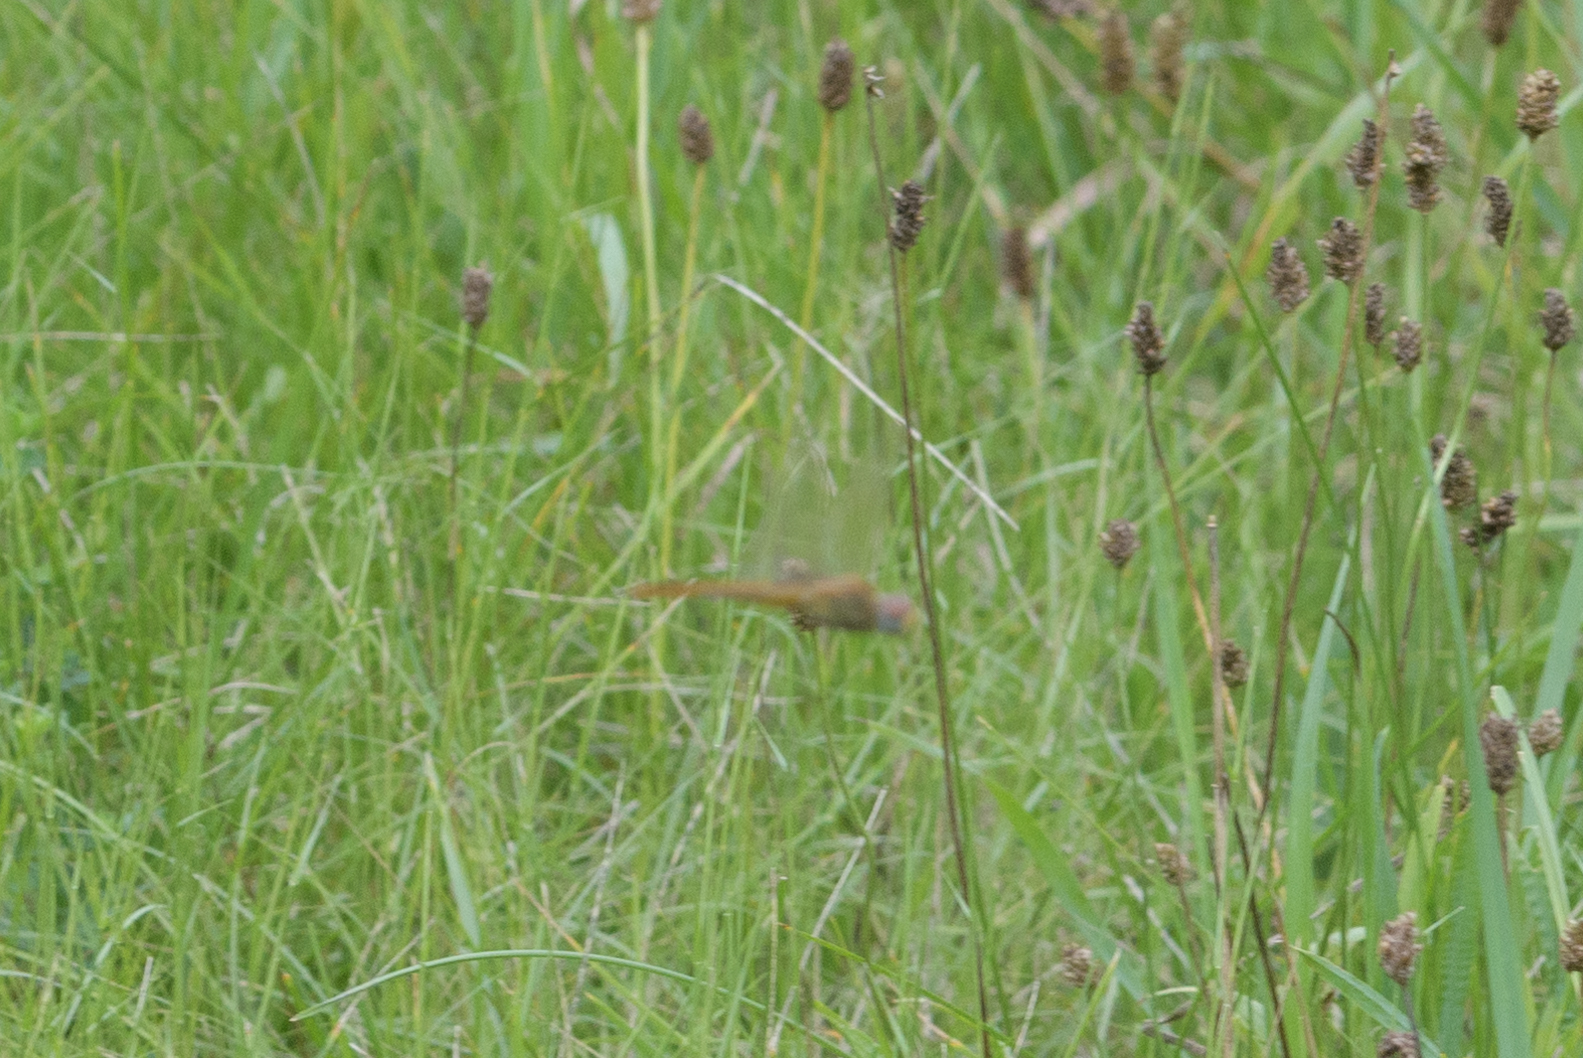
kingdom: Animalia
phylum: Arthropoda
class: Insecta
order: Odonata
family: Libellulidae
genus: Pantala
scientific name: Pantala flavescens
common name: Wandering glider
